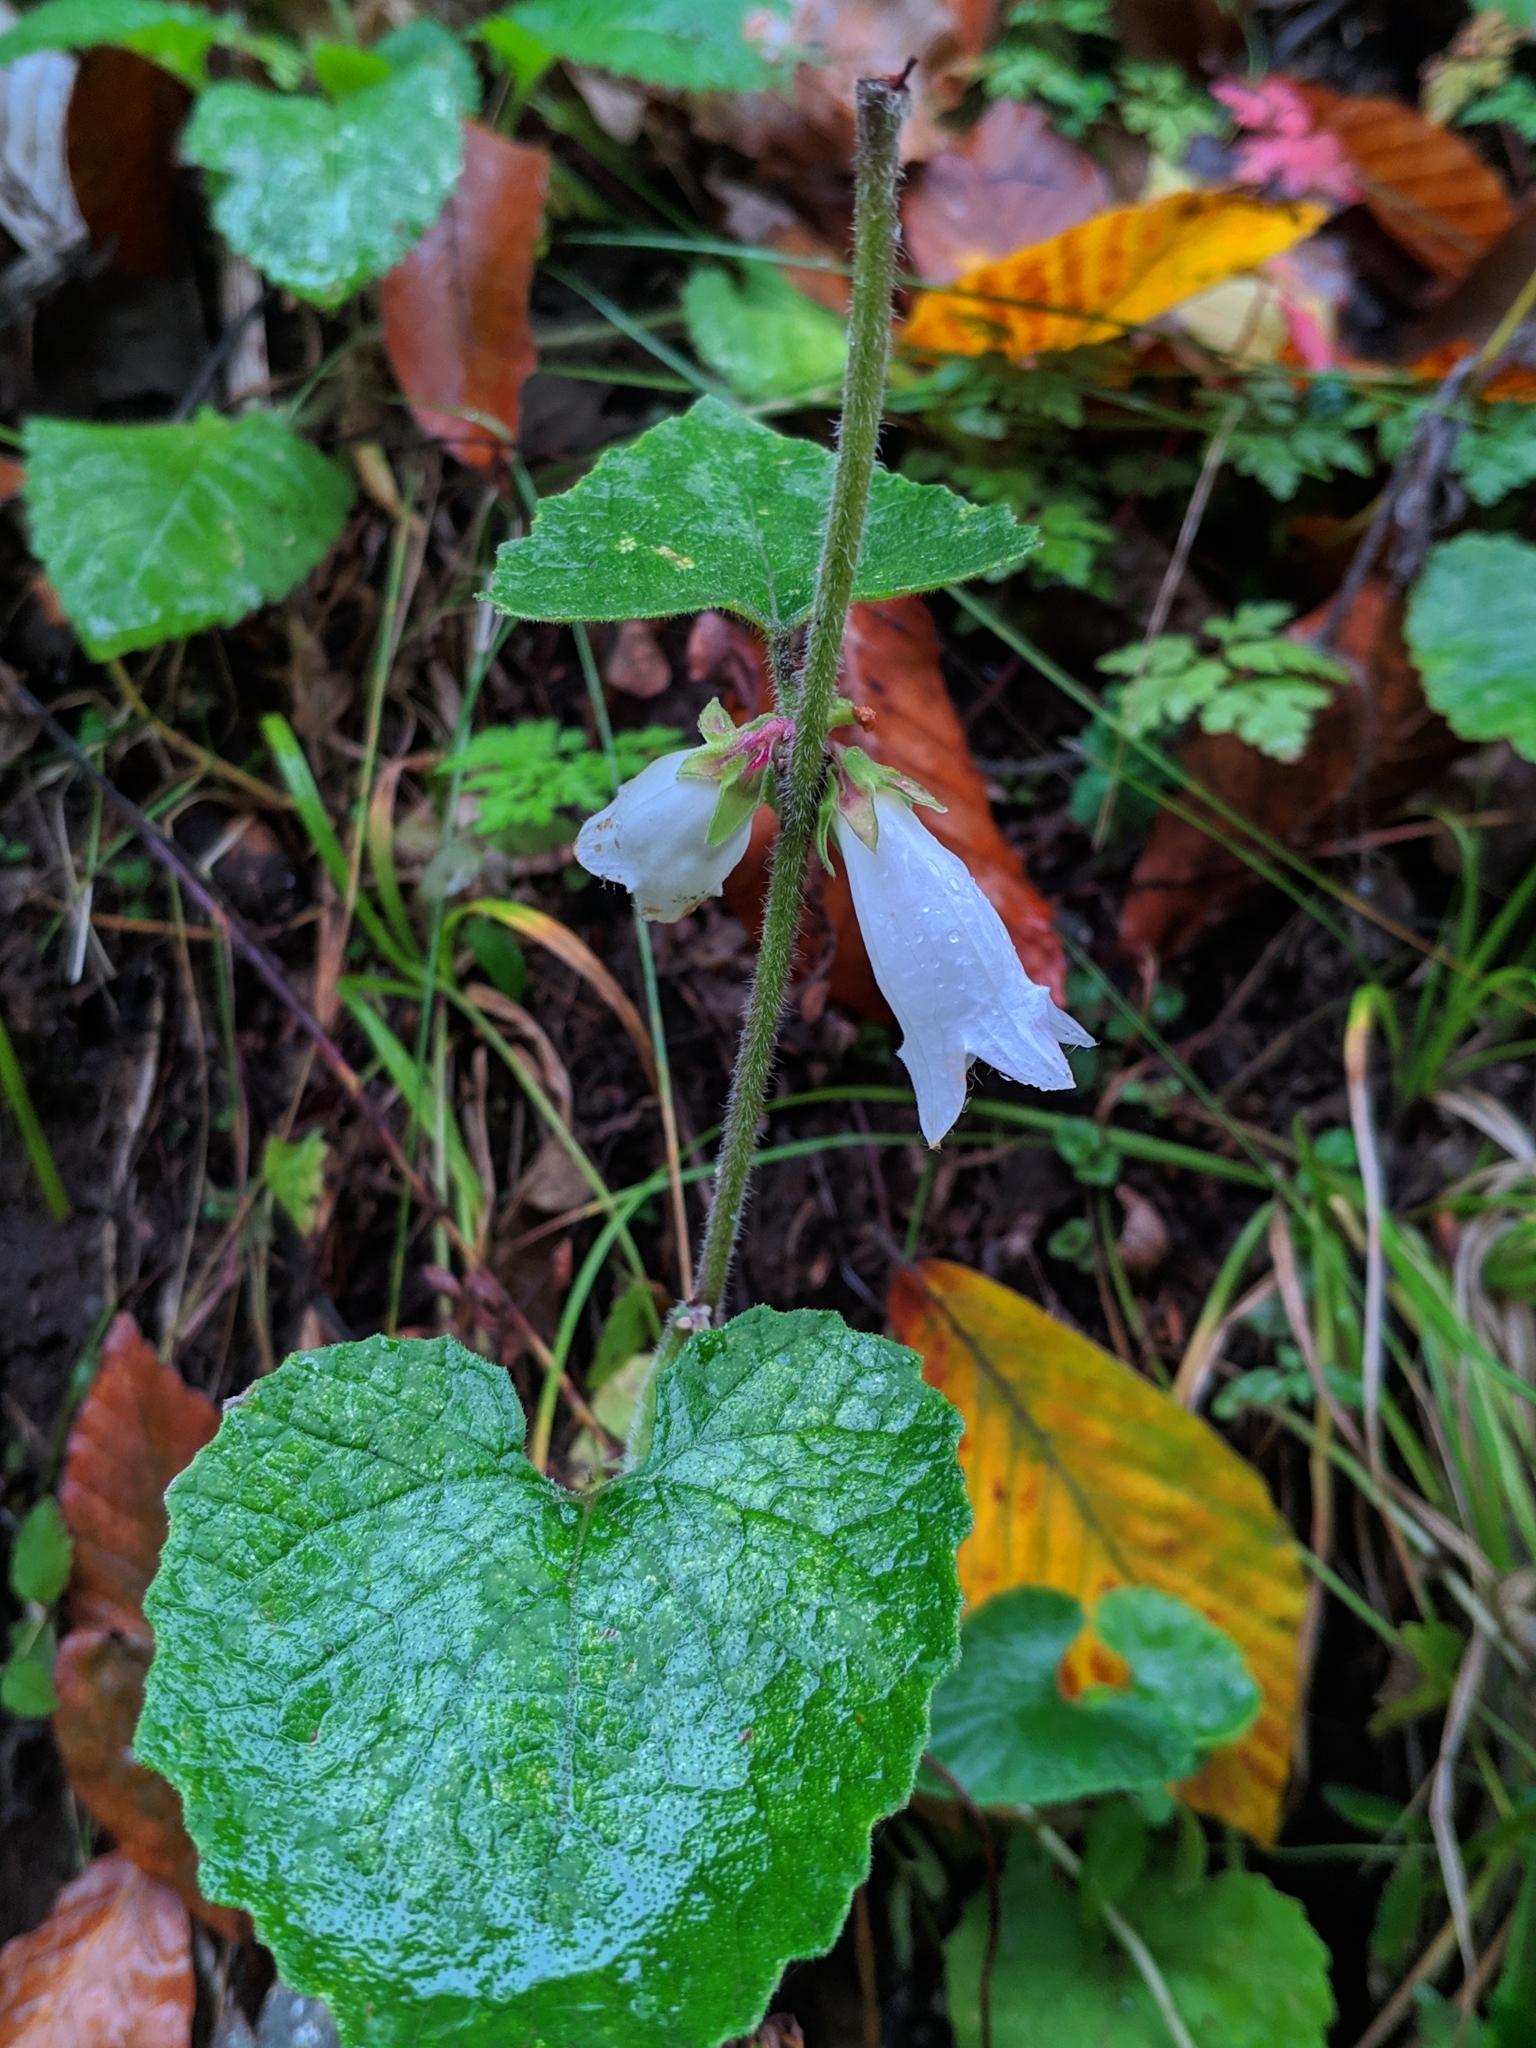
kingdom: Plantae
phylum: Tracheophyta
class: Magnoliopsida
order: Asterales
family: Campanulaceae
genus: Campanula
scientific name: Campanula alliariifolia
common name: Cornish bellflower
